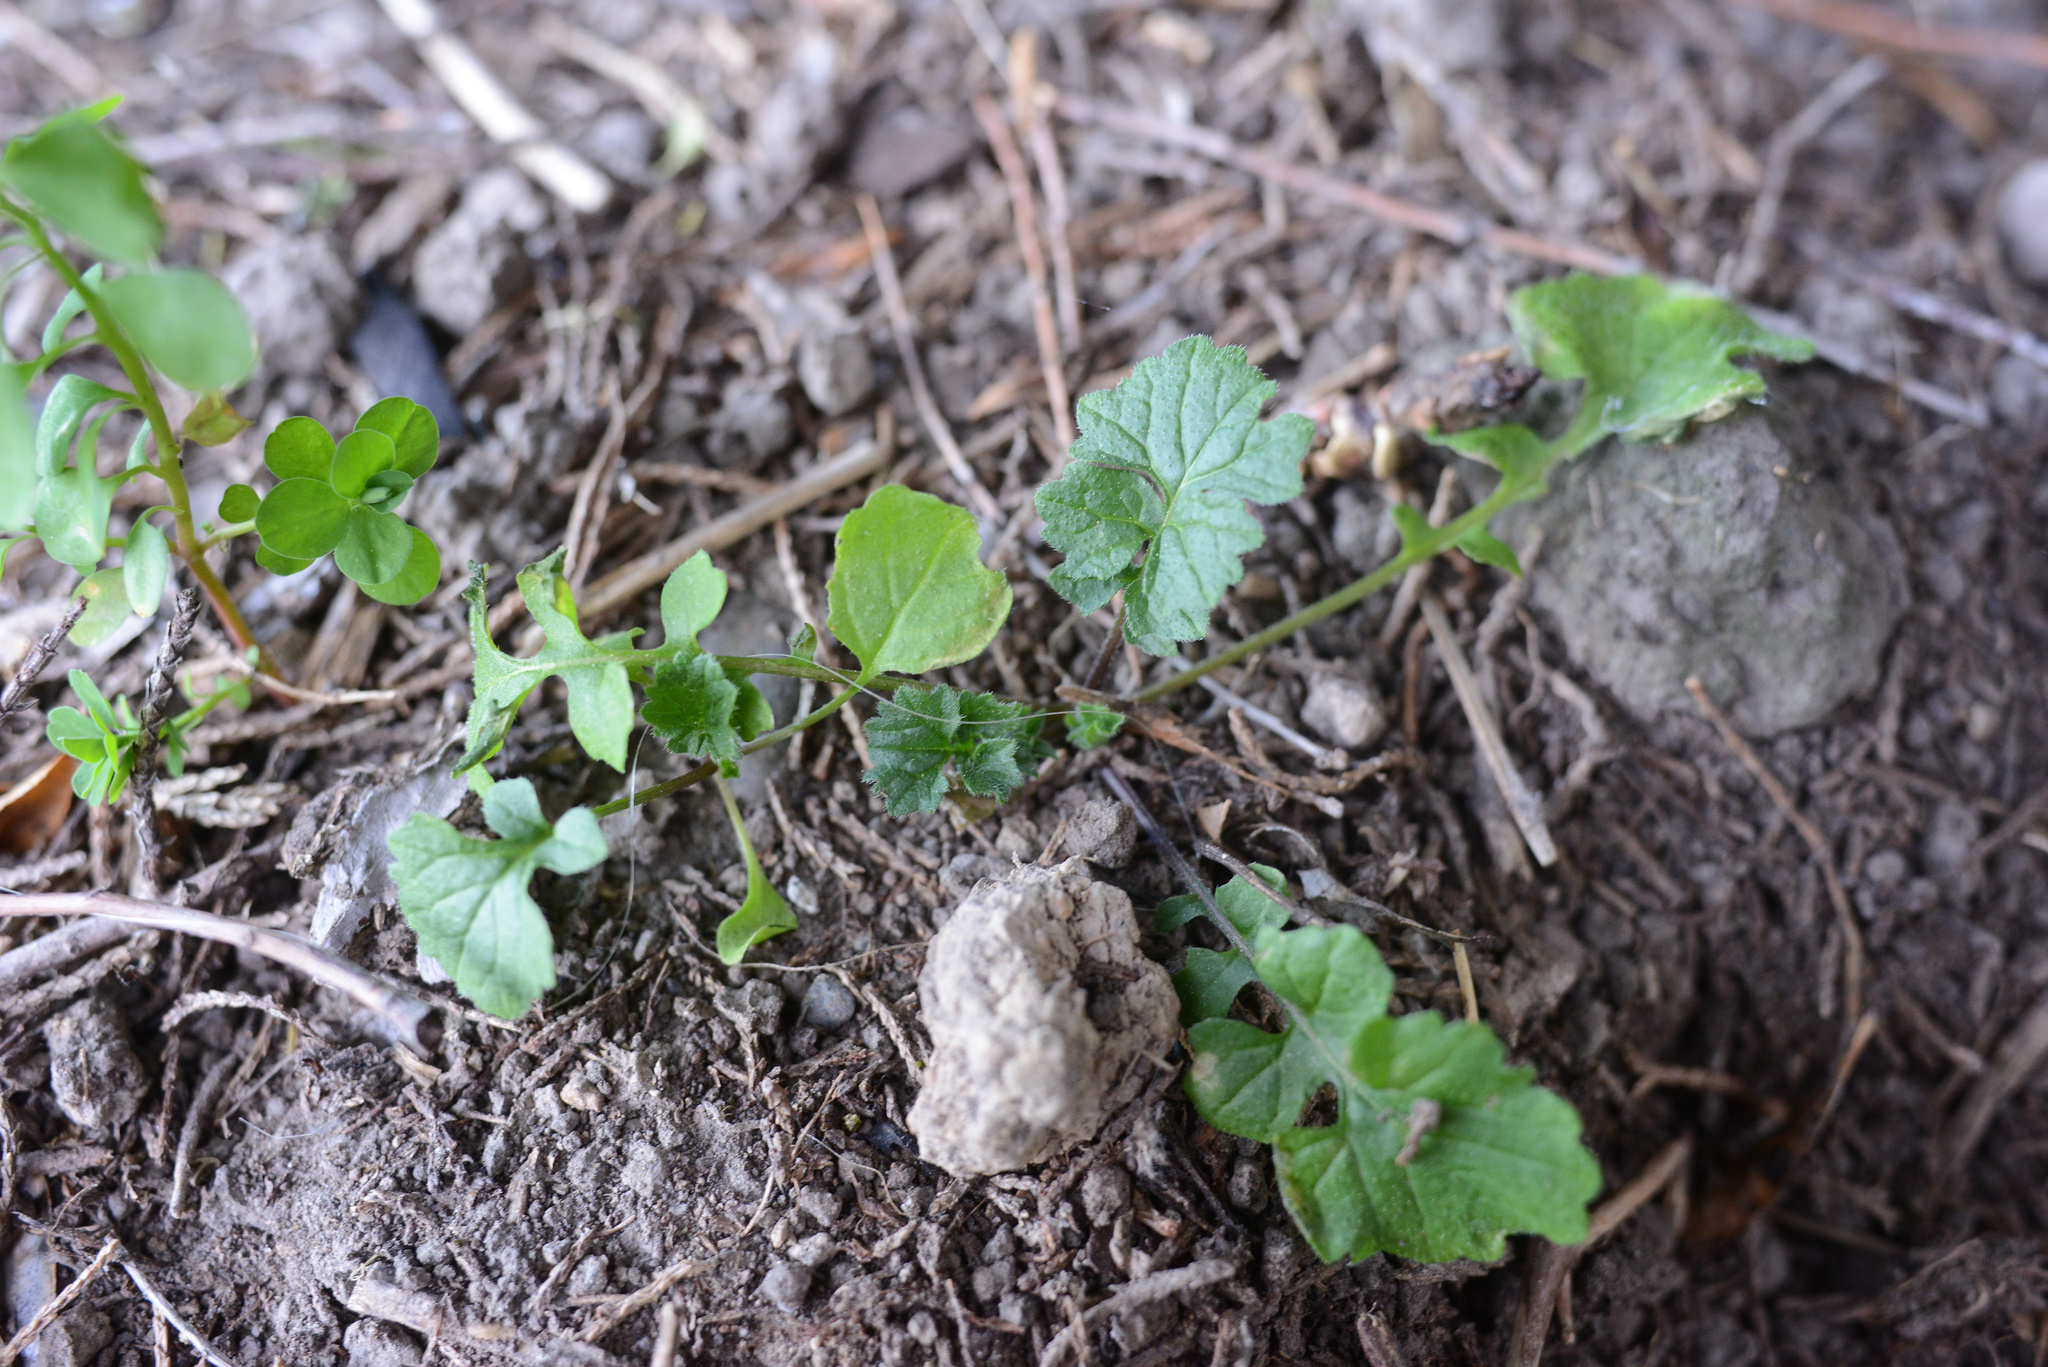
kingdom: Plantae
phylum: Tracheophyta
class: Magnoliopsida
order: Brassicales
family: Brassicaceae
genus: Sisymbrium
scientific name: Sisymbrium officinale
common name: Hedge mustard
